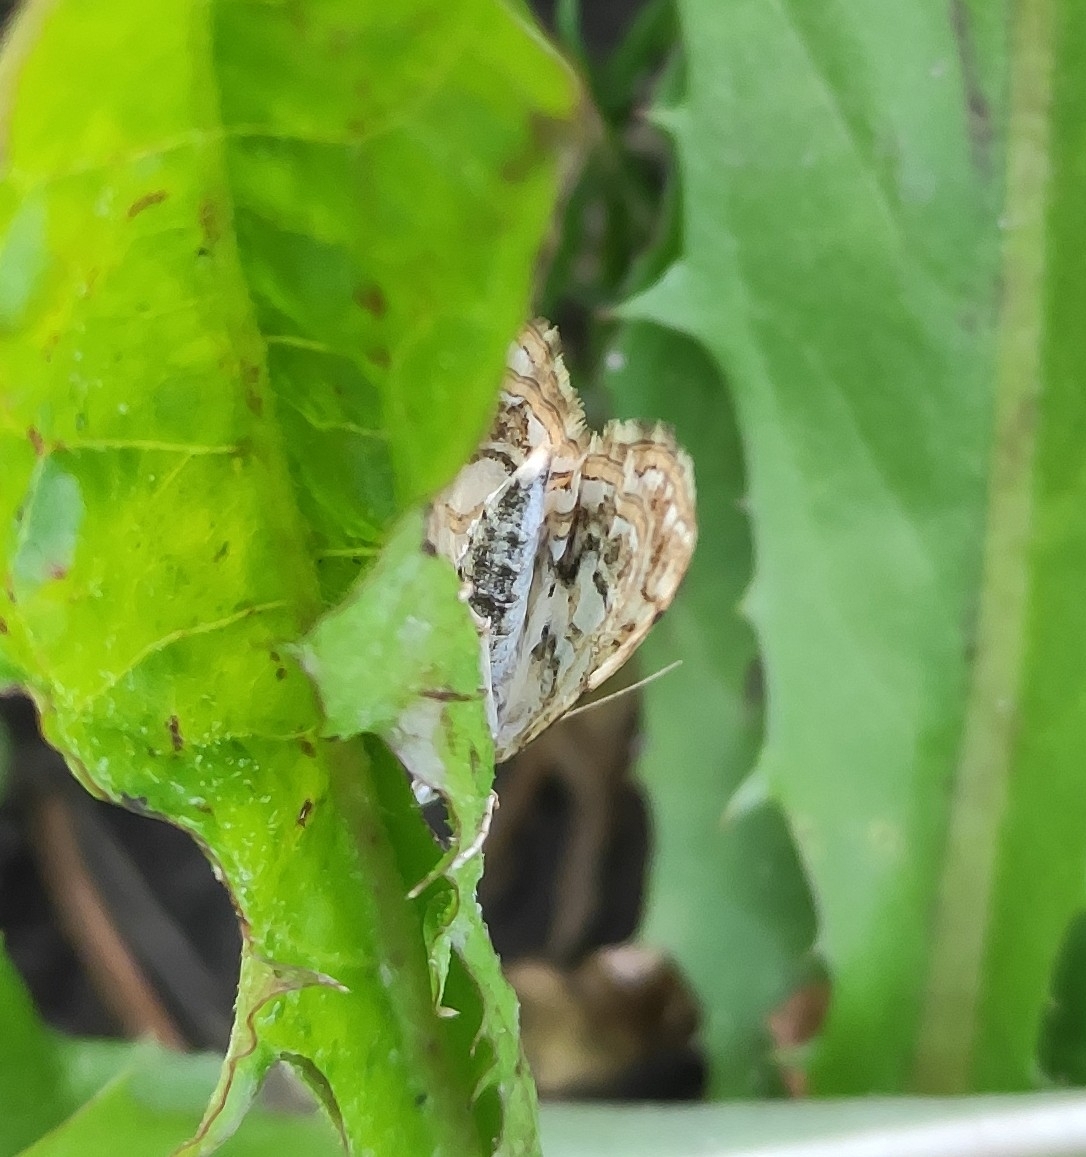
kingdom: Animalia
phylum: Arthropoda
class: Insecta
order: Lepidoptera
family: Crambidae
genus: Elophila
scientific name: Elophila nymphaeata
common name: Brown china-mark
